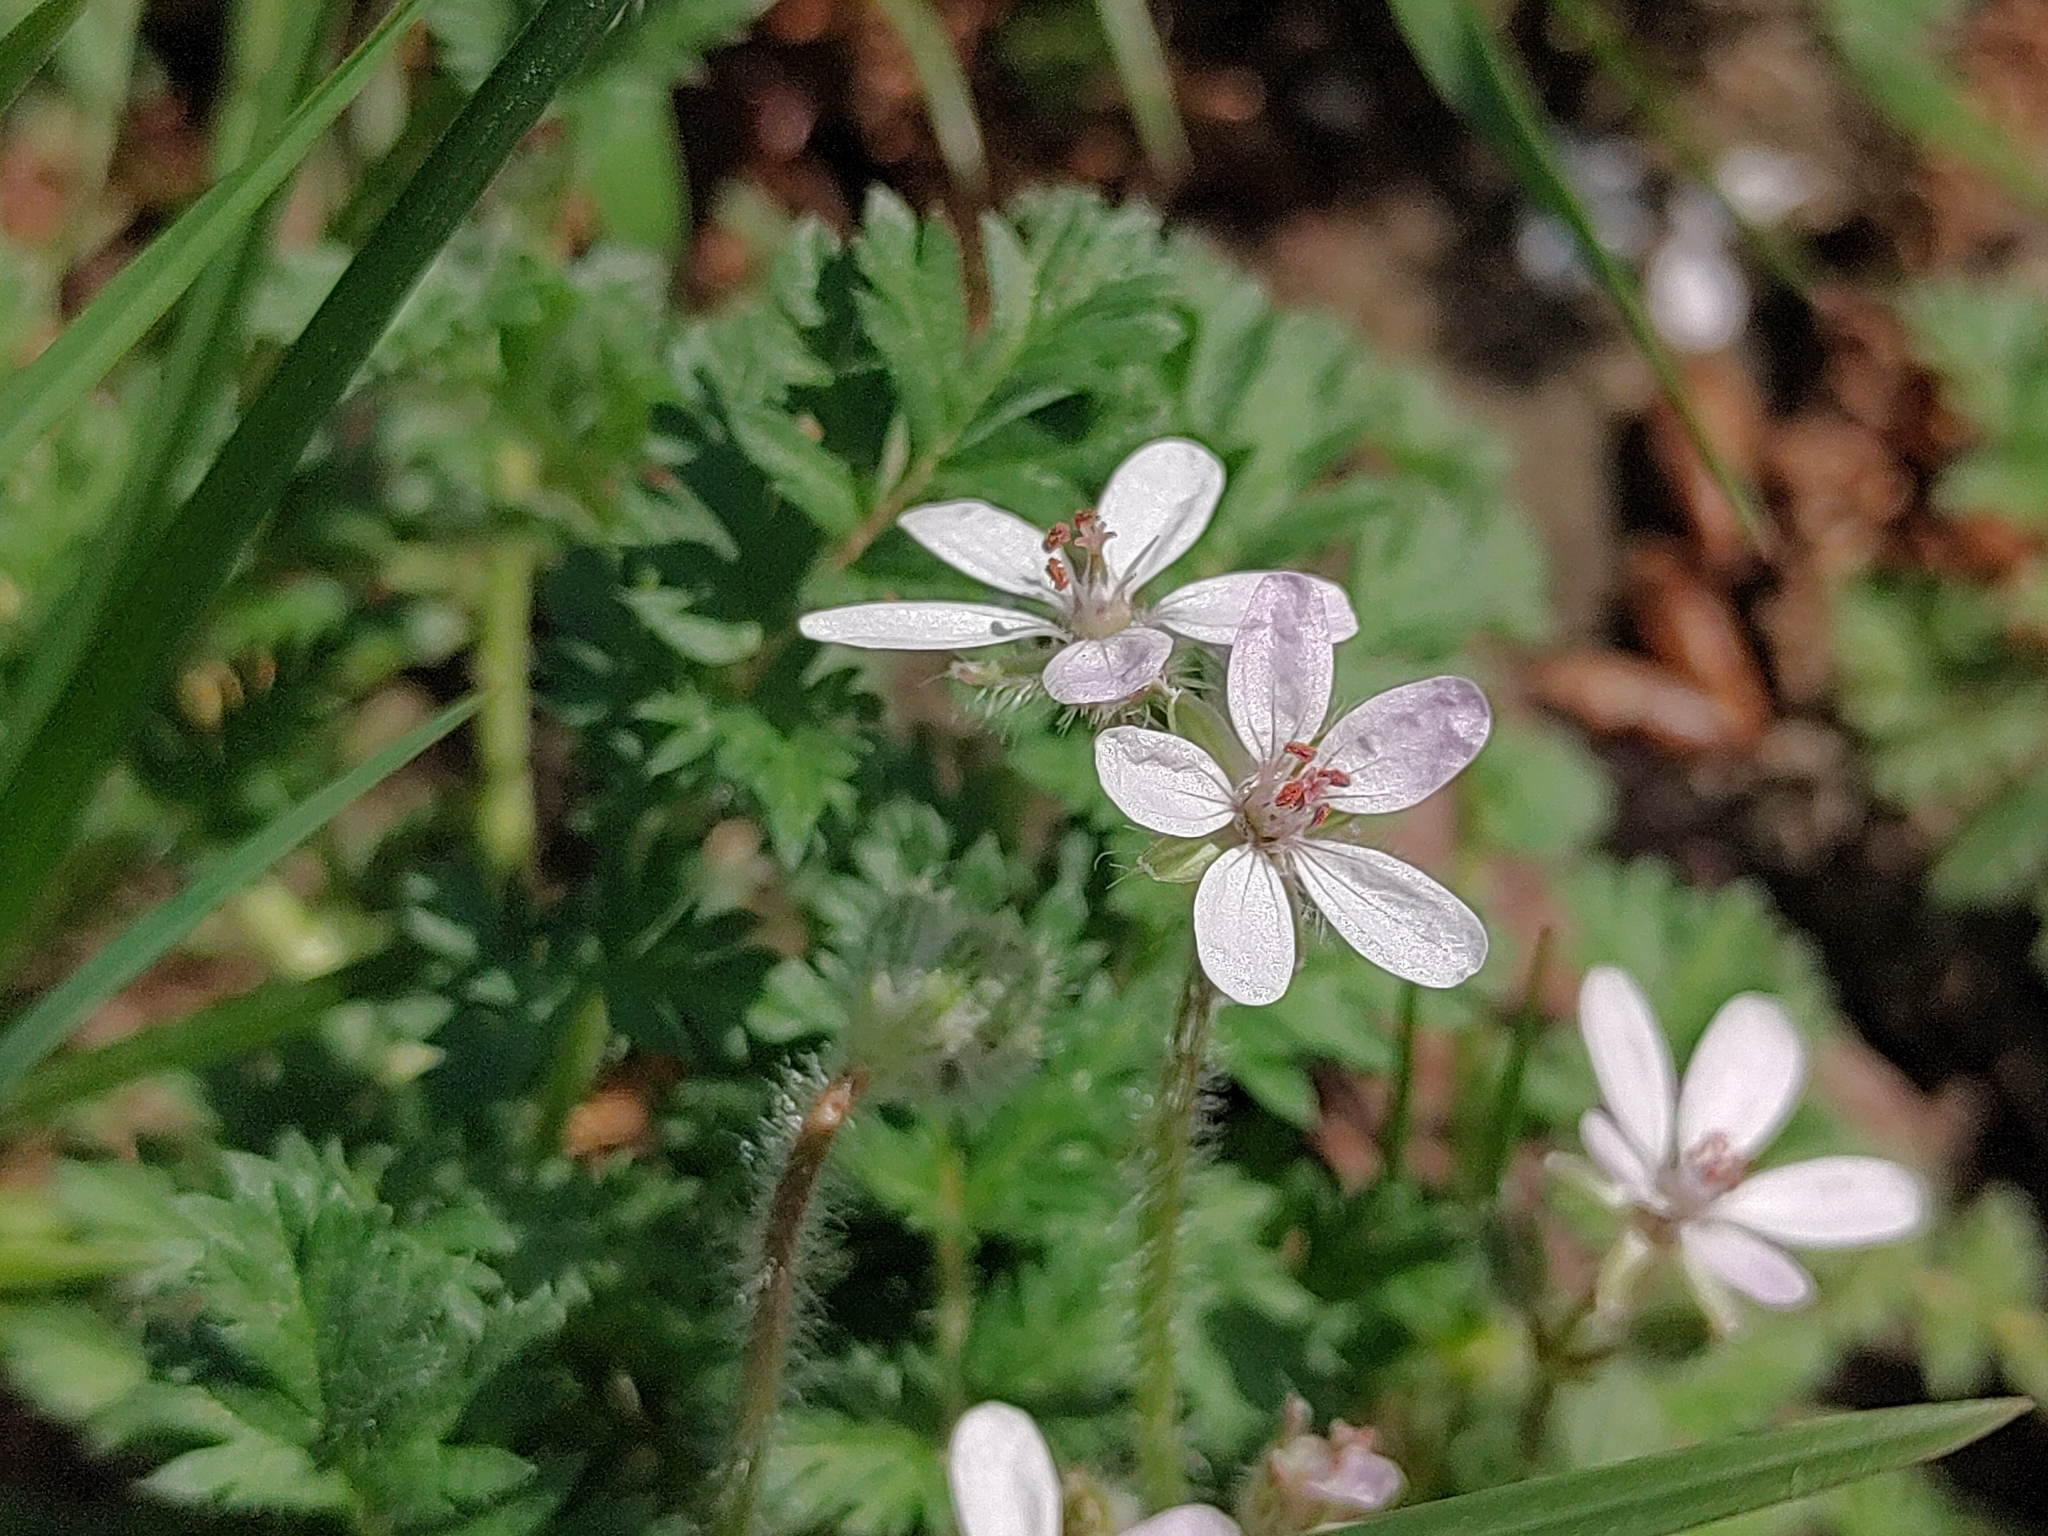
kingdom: Plantae
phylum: Tracheophyta
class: Magnoliopsida
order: Geraniales
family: Geraniaceae
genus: Erodium
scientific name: Erodium cicutarium
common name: Common stork's-bill
